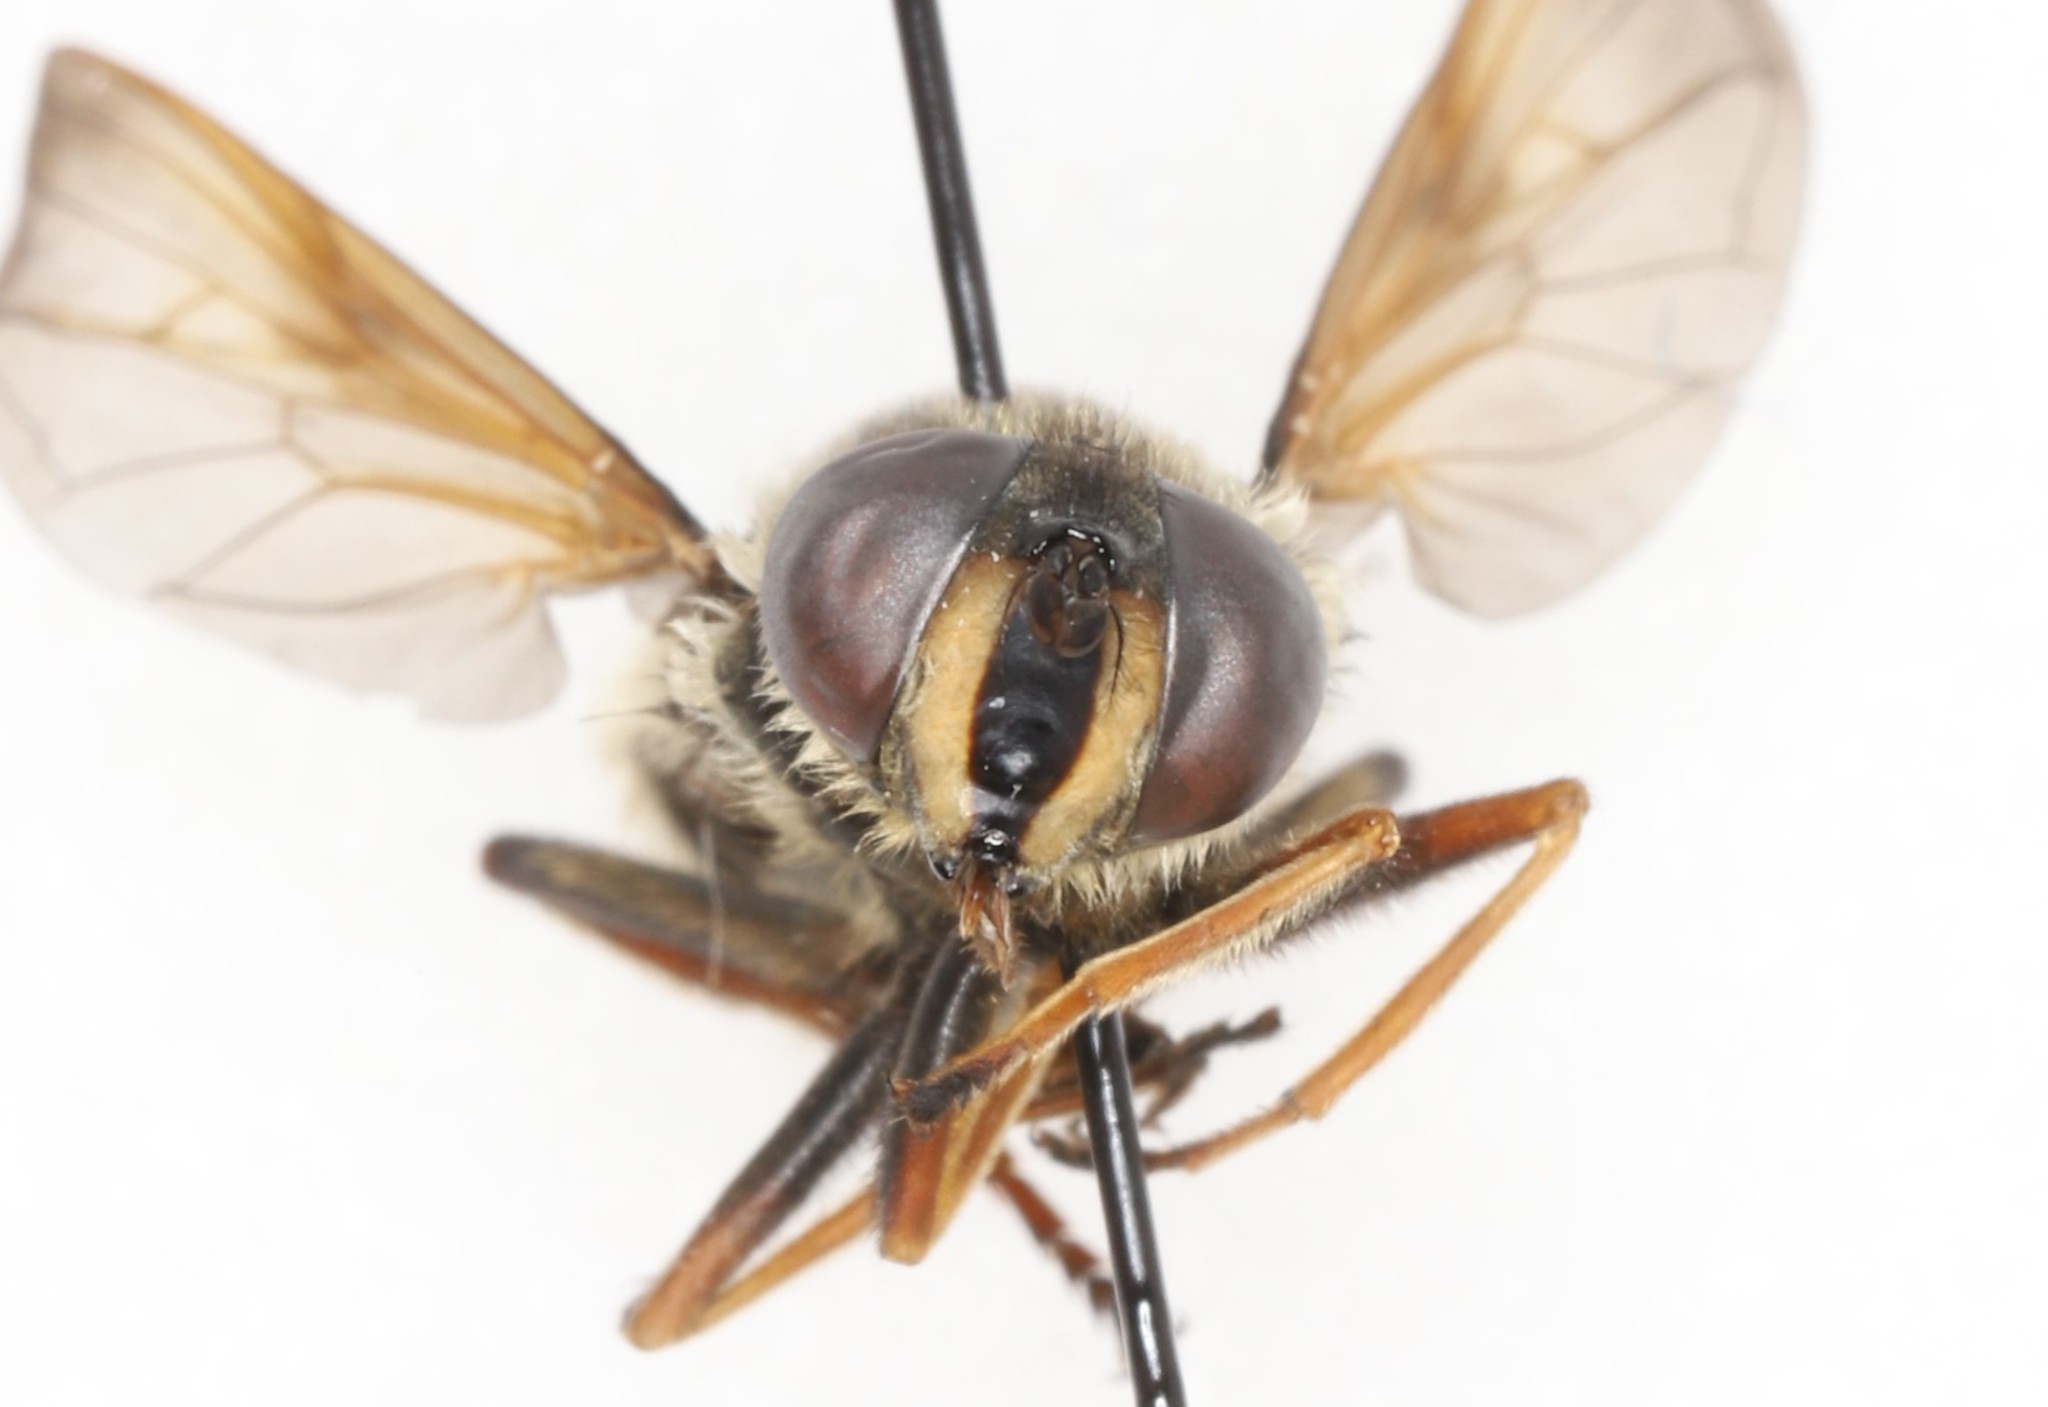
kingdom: Animalia
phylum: Arthropoda
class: Insecta
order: Diptera
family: Syrphidae
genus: Sericomyia
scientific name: Sericomyia militaris
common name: Narrow-banded pond fly
